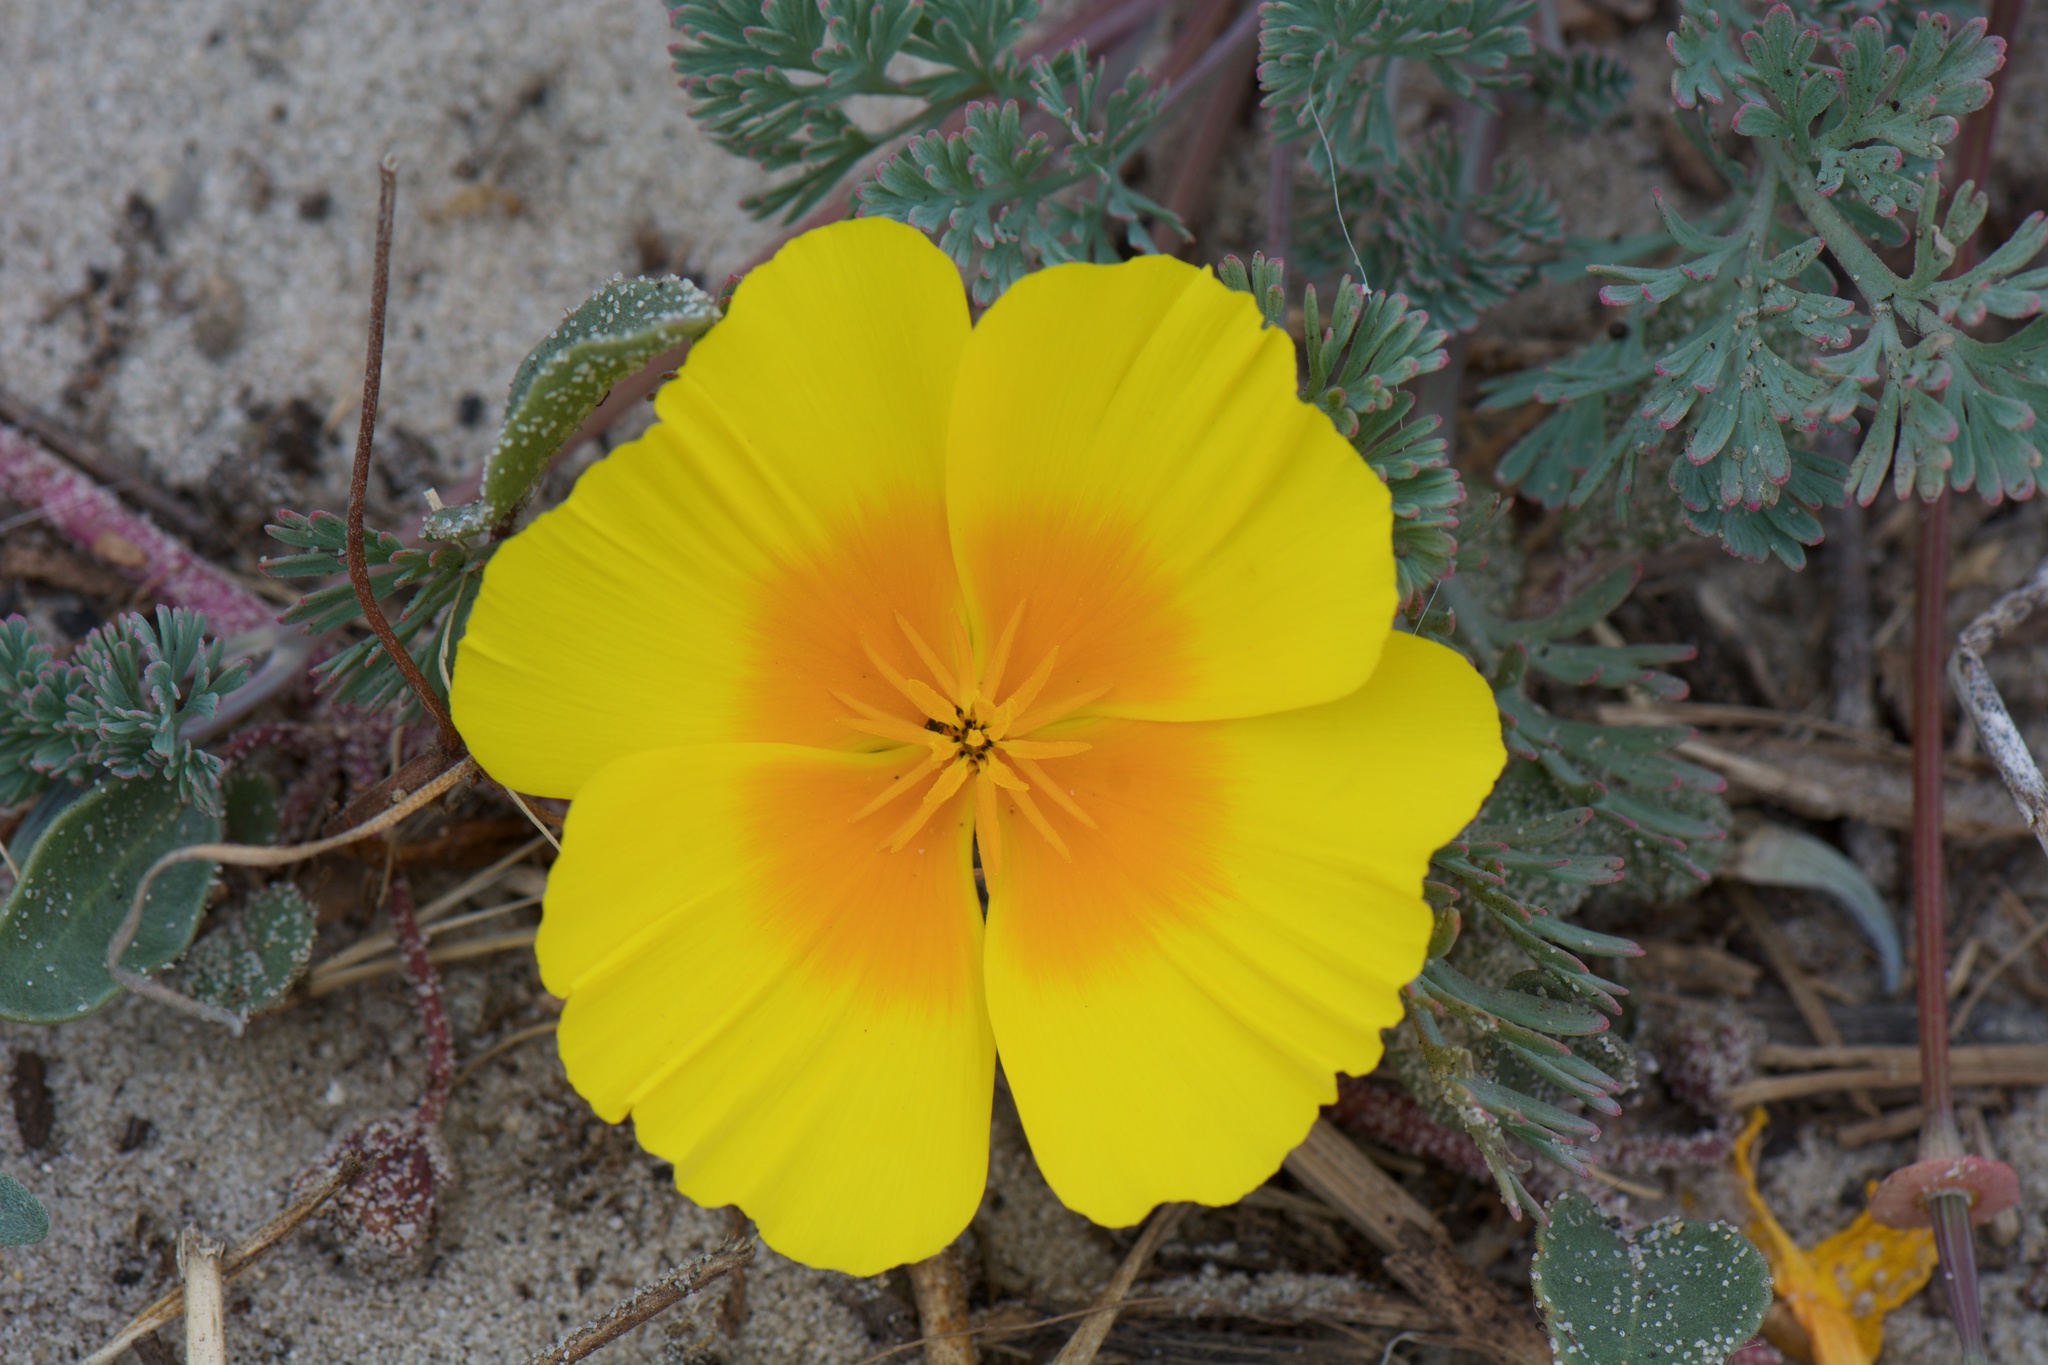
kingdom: Plantae
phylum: Tracheophyta
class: Magnoliopsida
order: Ranunculales
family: Papaveraceae
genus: Eschscholzia
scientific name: Eschscholzia californica
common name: California poppy
